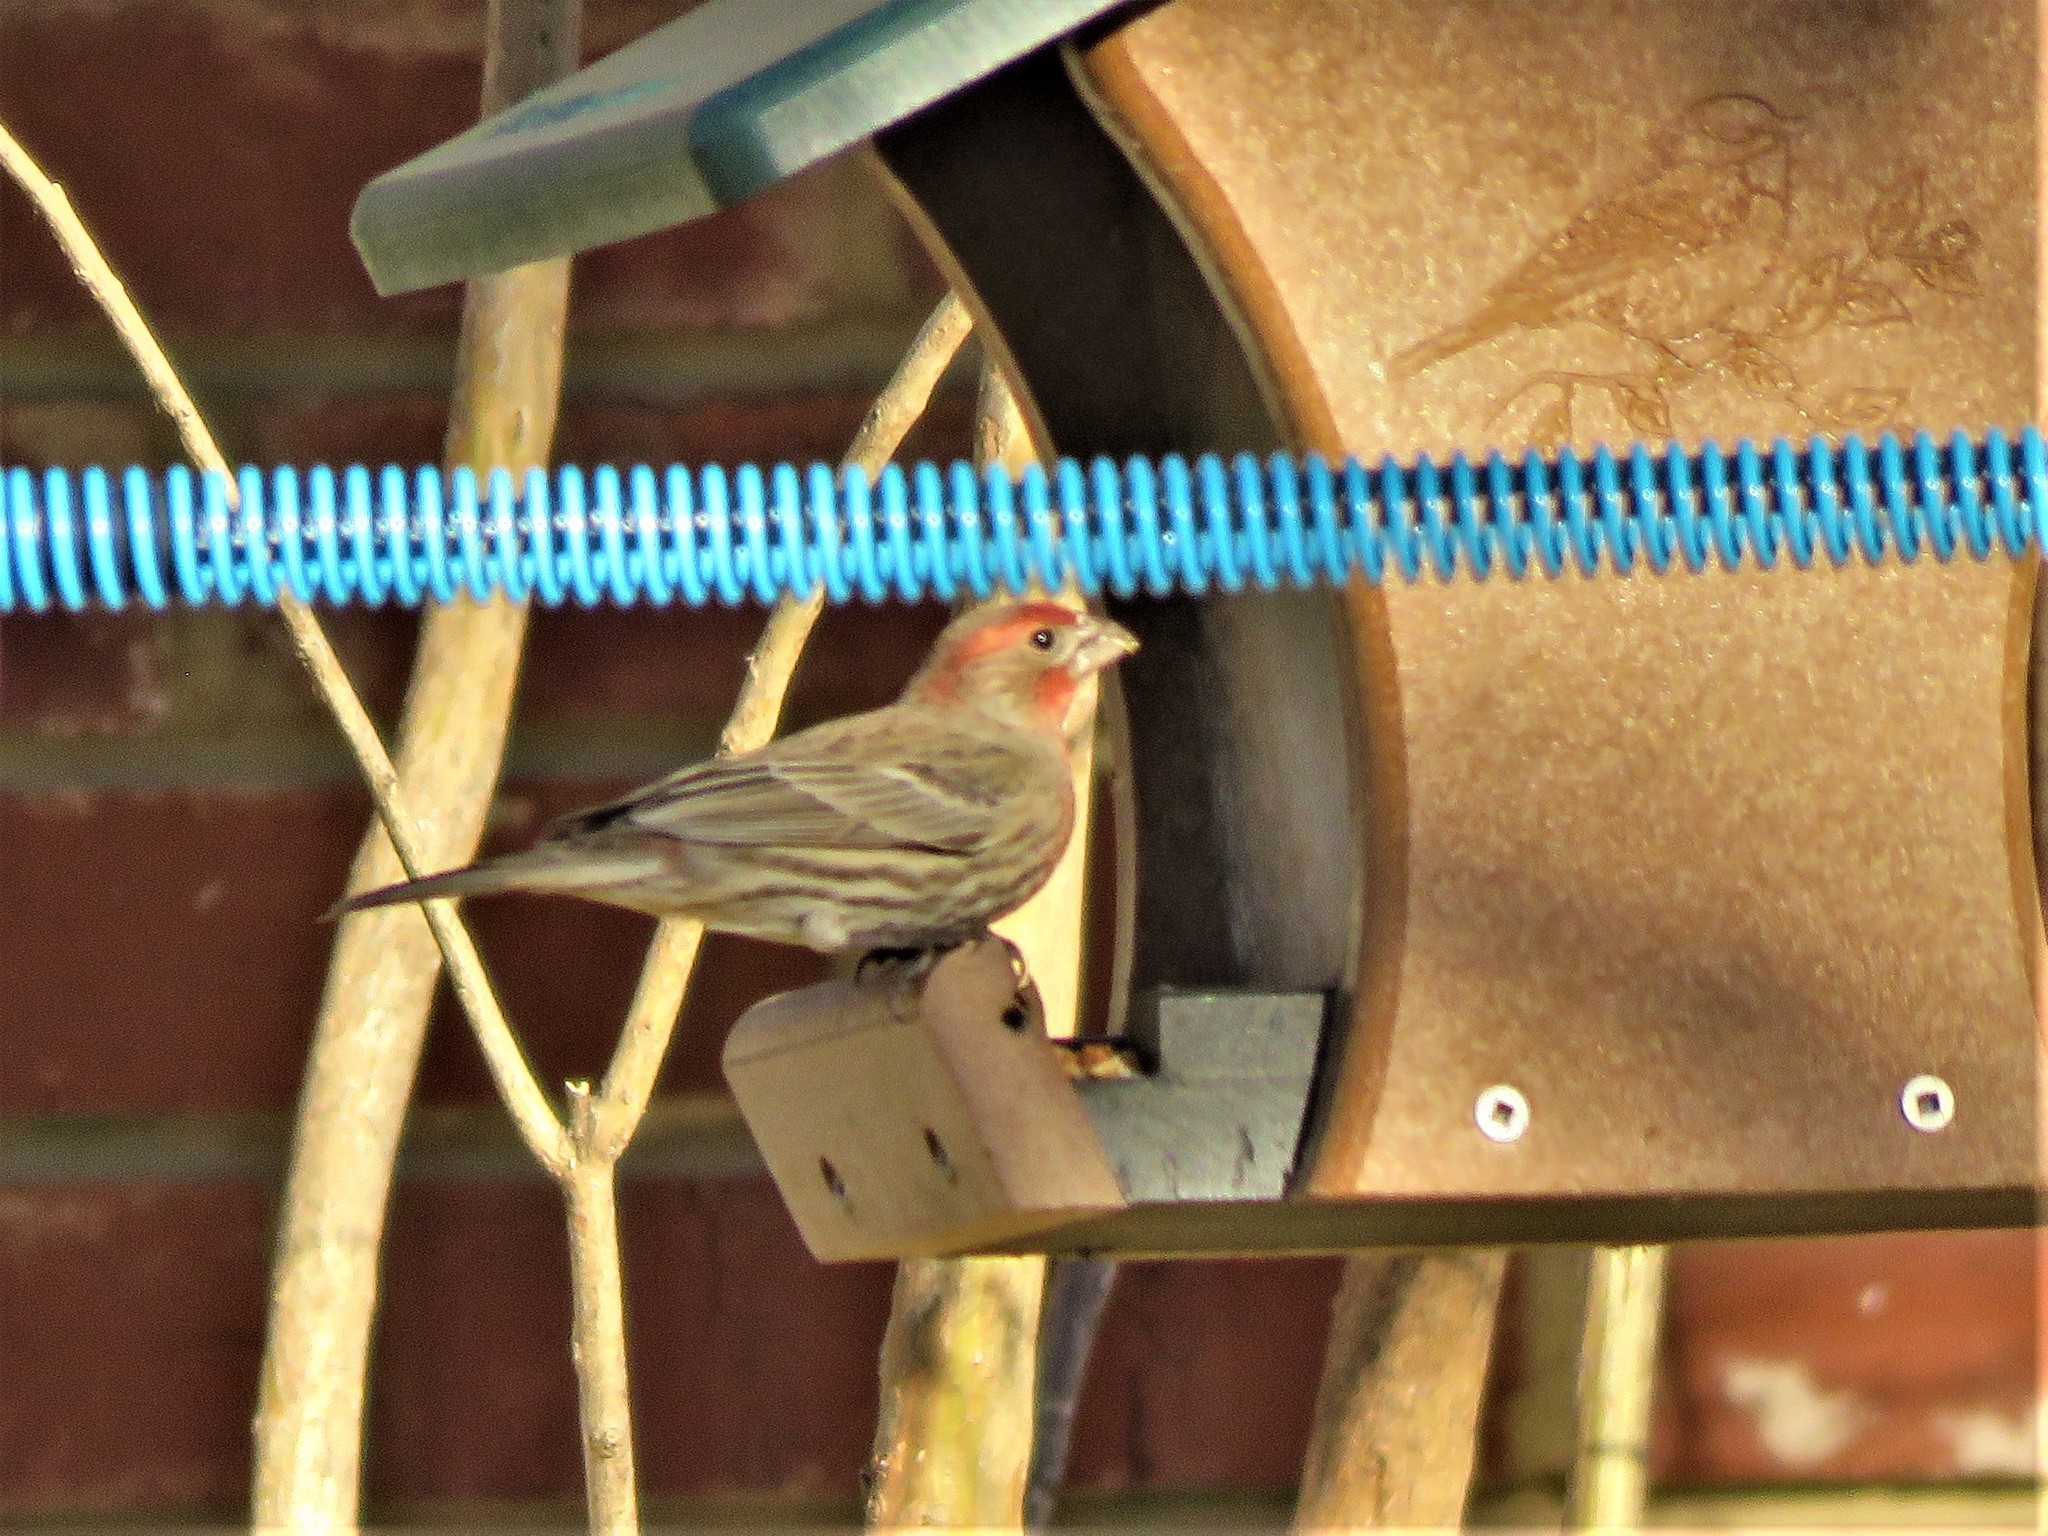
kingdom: Animalia
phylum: Chordata
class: Aves
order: Passeriformes
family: Fringillidae
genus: Haemorhous
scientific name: Haemorhous mexicanus
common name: House finch
